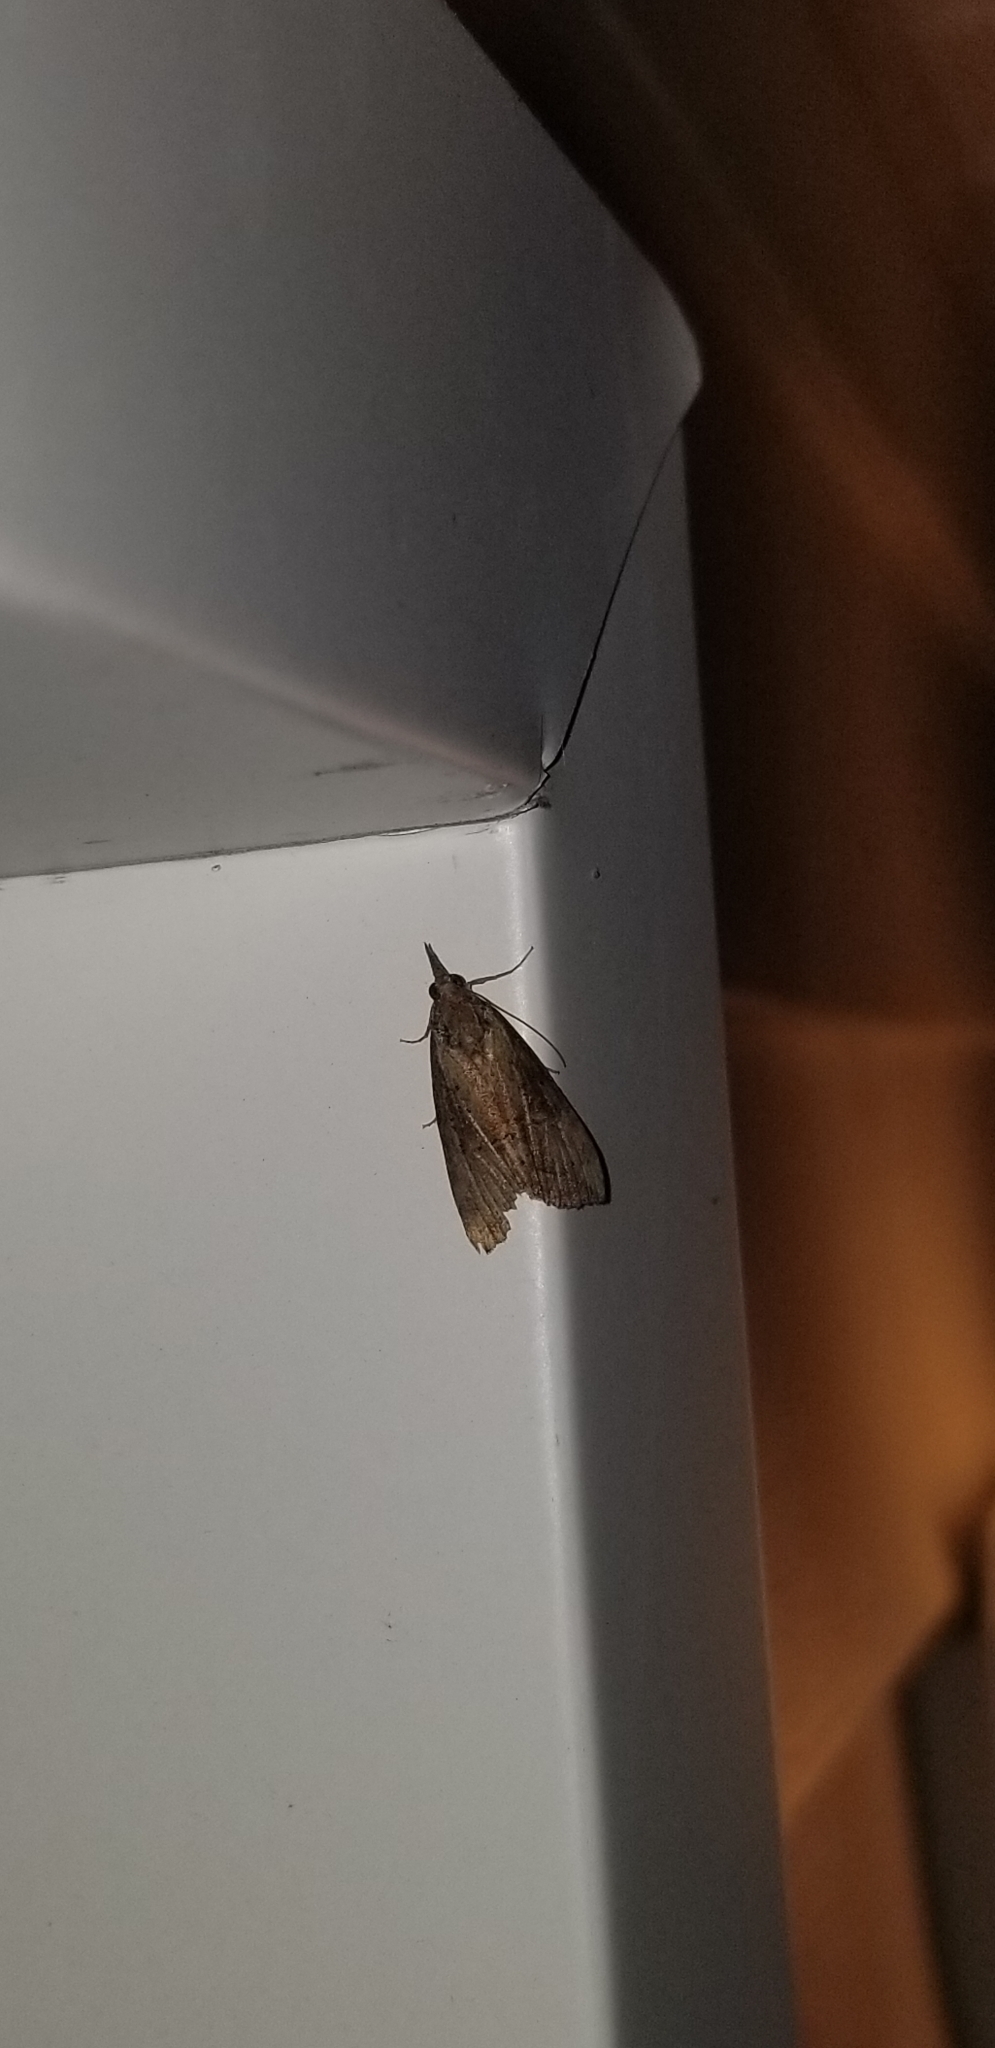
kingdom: Animalia
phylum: Arthropoda
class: Insecta
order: Lepidoptera
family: Erebidae
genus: Hypena
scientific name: Hypena scabra
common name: Green cloverworm
